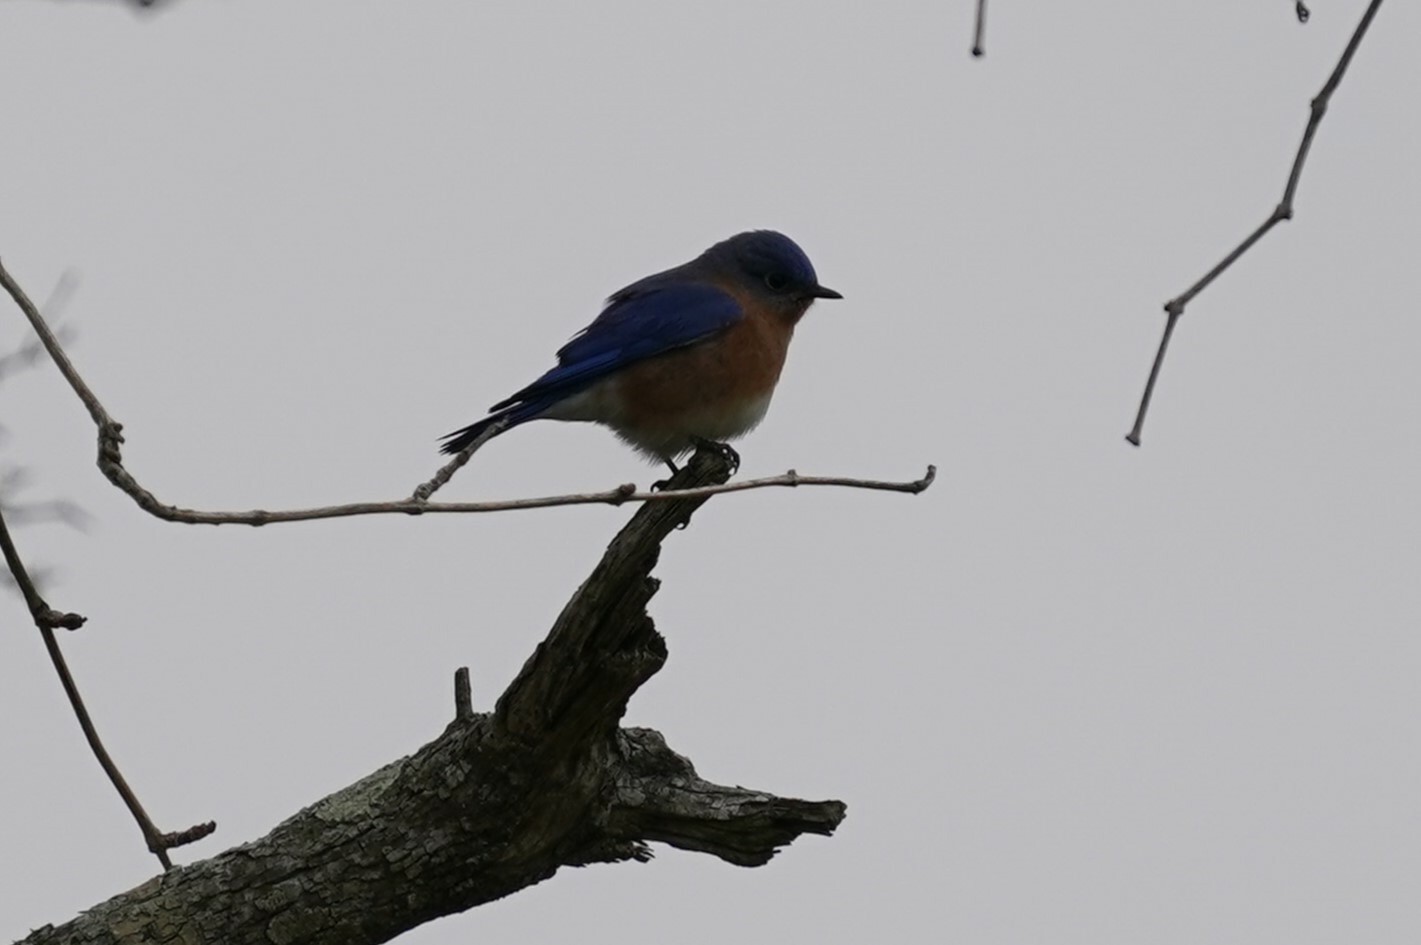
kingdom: Animalia
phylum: Chordata
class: Aves
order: Passeriformes
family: Turdidae
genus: Sialia
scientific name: Sialia sialis
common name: Eastern bluebird
